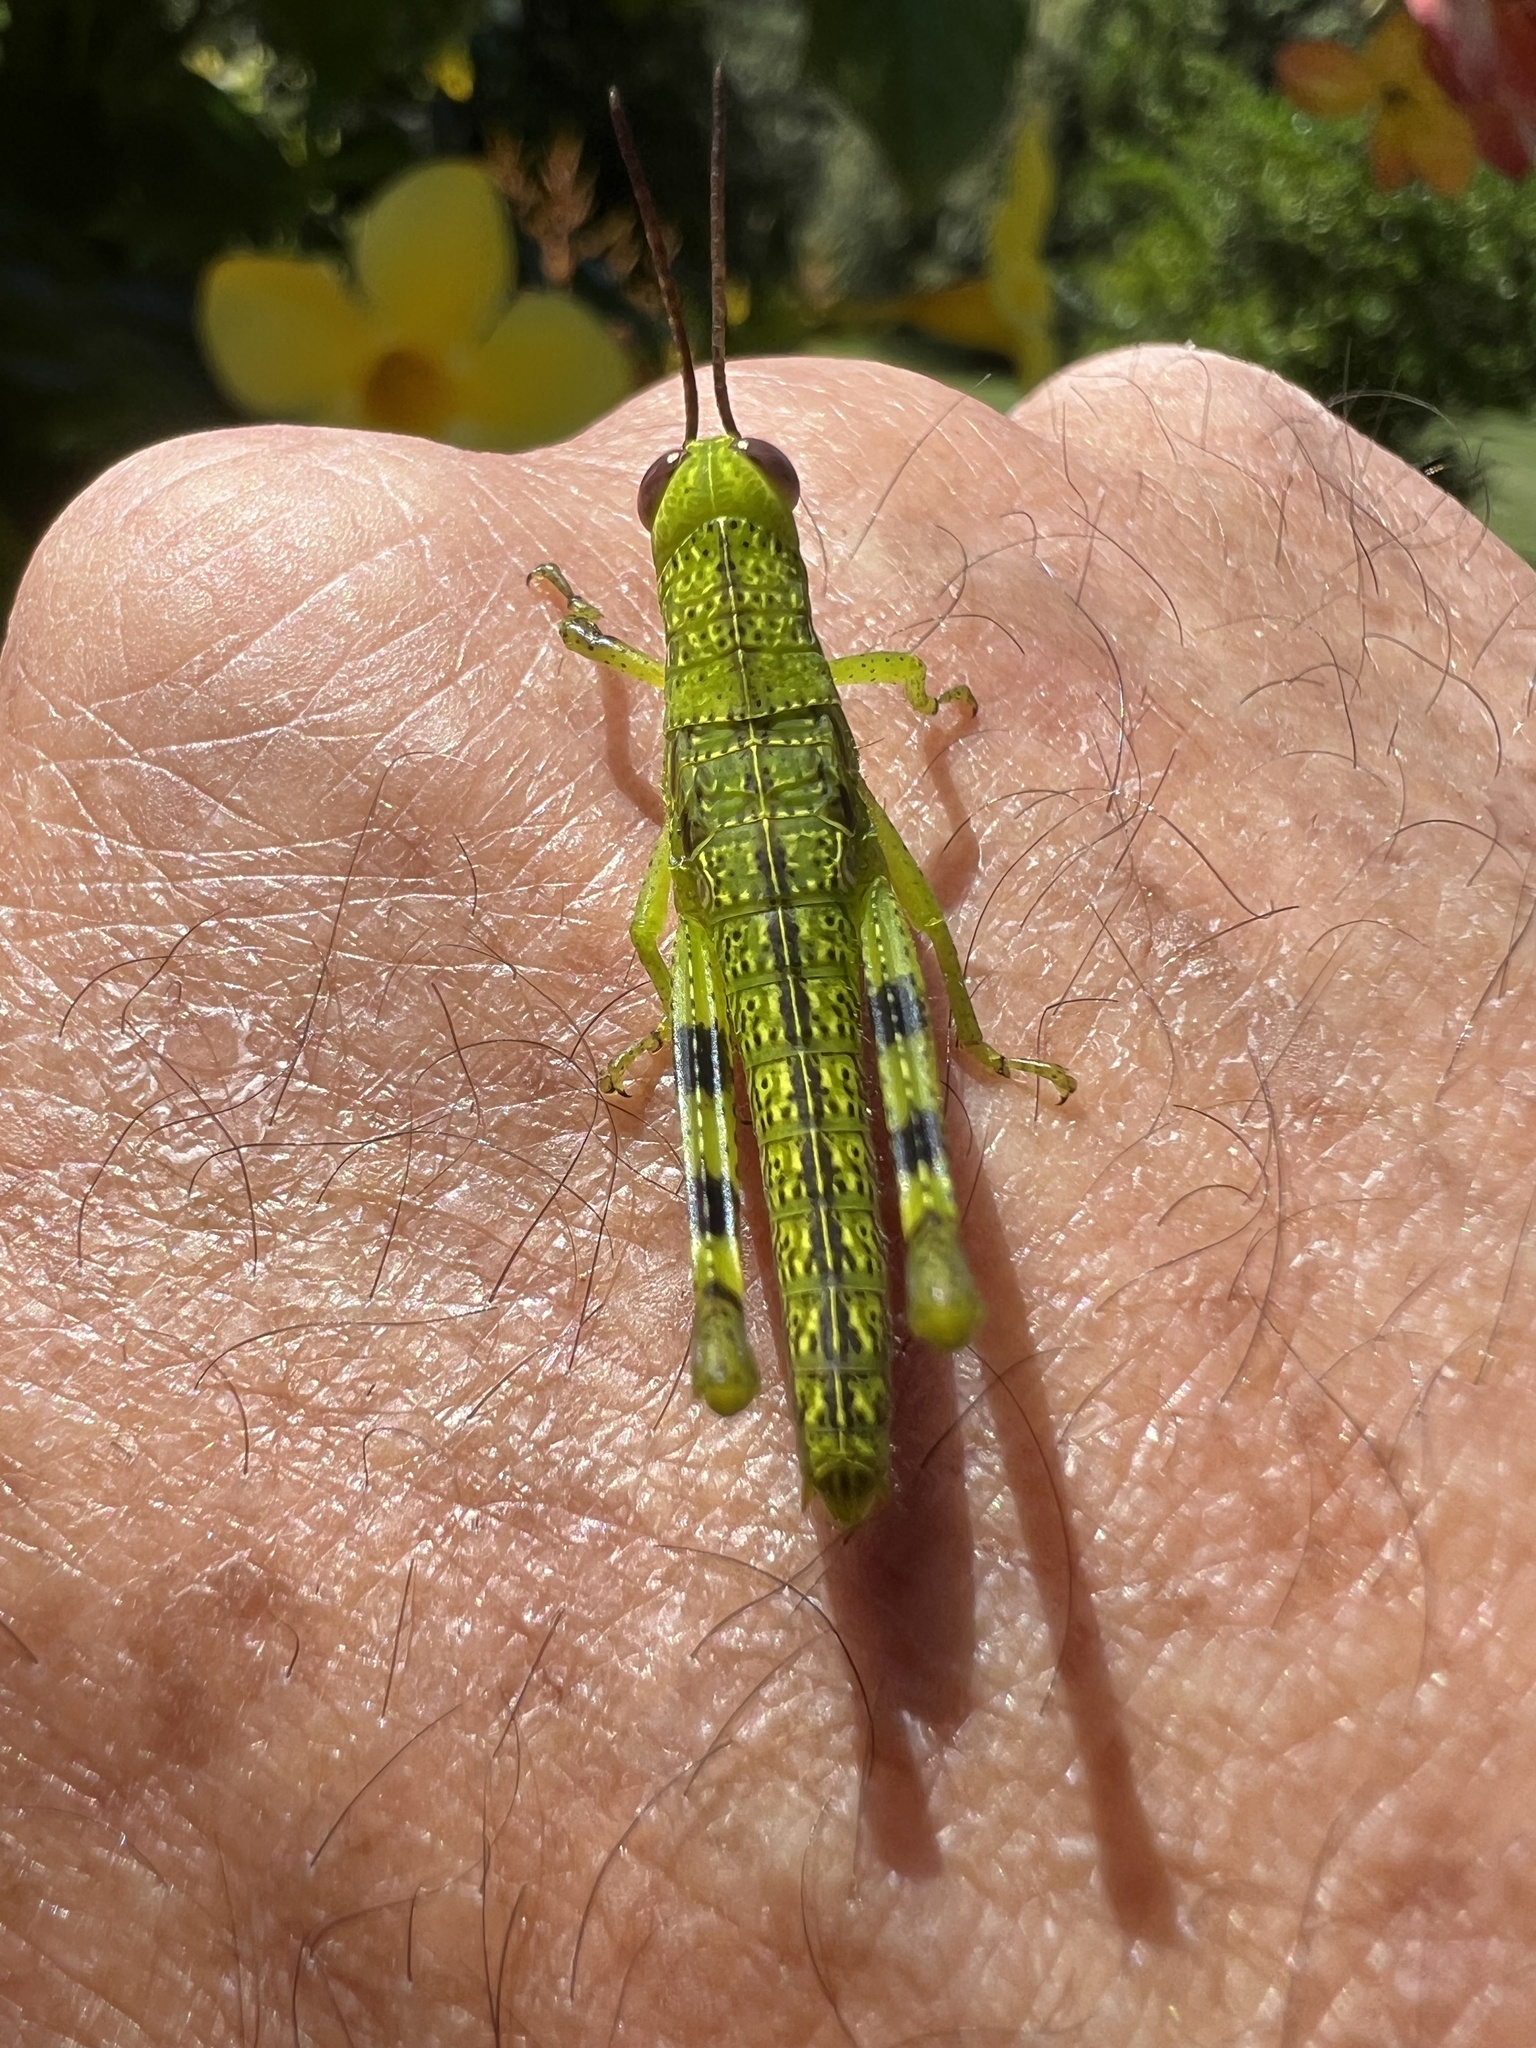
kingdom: Animalia
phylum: Arthropoda
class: Insecta
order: Orthoptera
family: Acrididae
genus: Valanga
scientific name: Valanga irregularis
